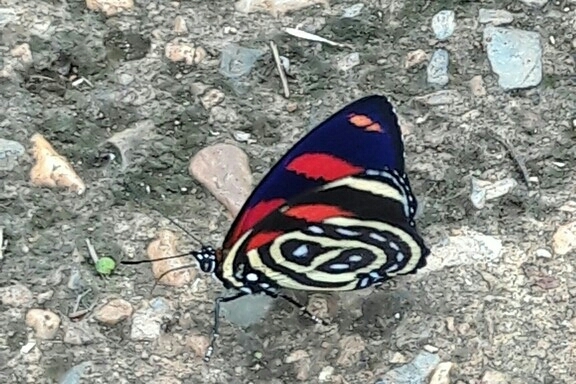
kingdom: Animalia
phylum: Arthropoda
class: Insecta
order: Lepidoptera
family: Nymphalidae
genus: Catagramma
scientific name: Catagramma astarte
